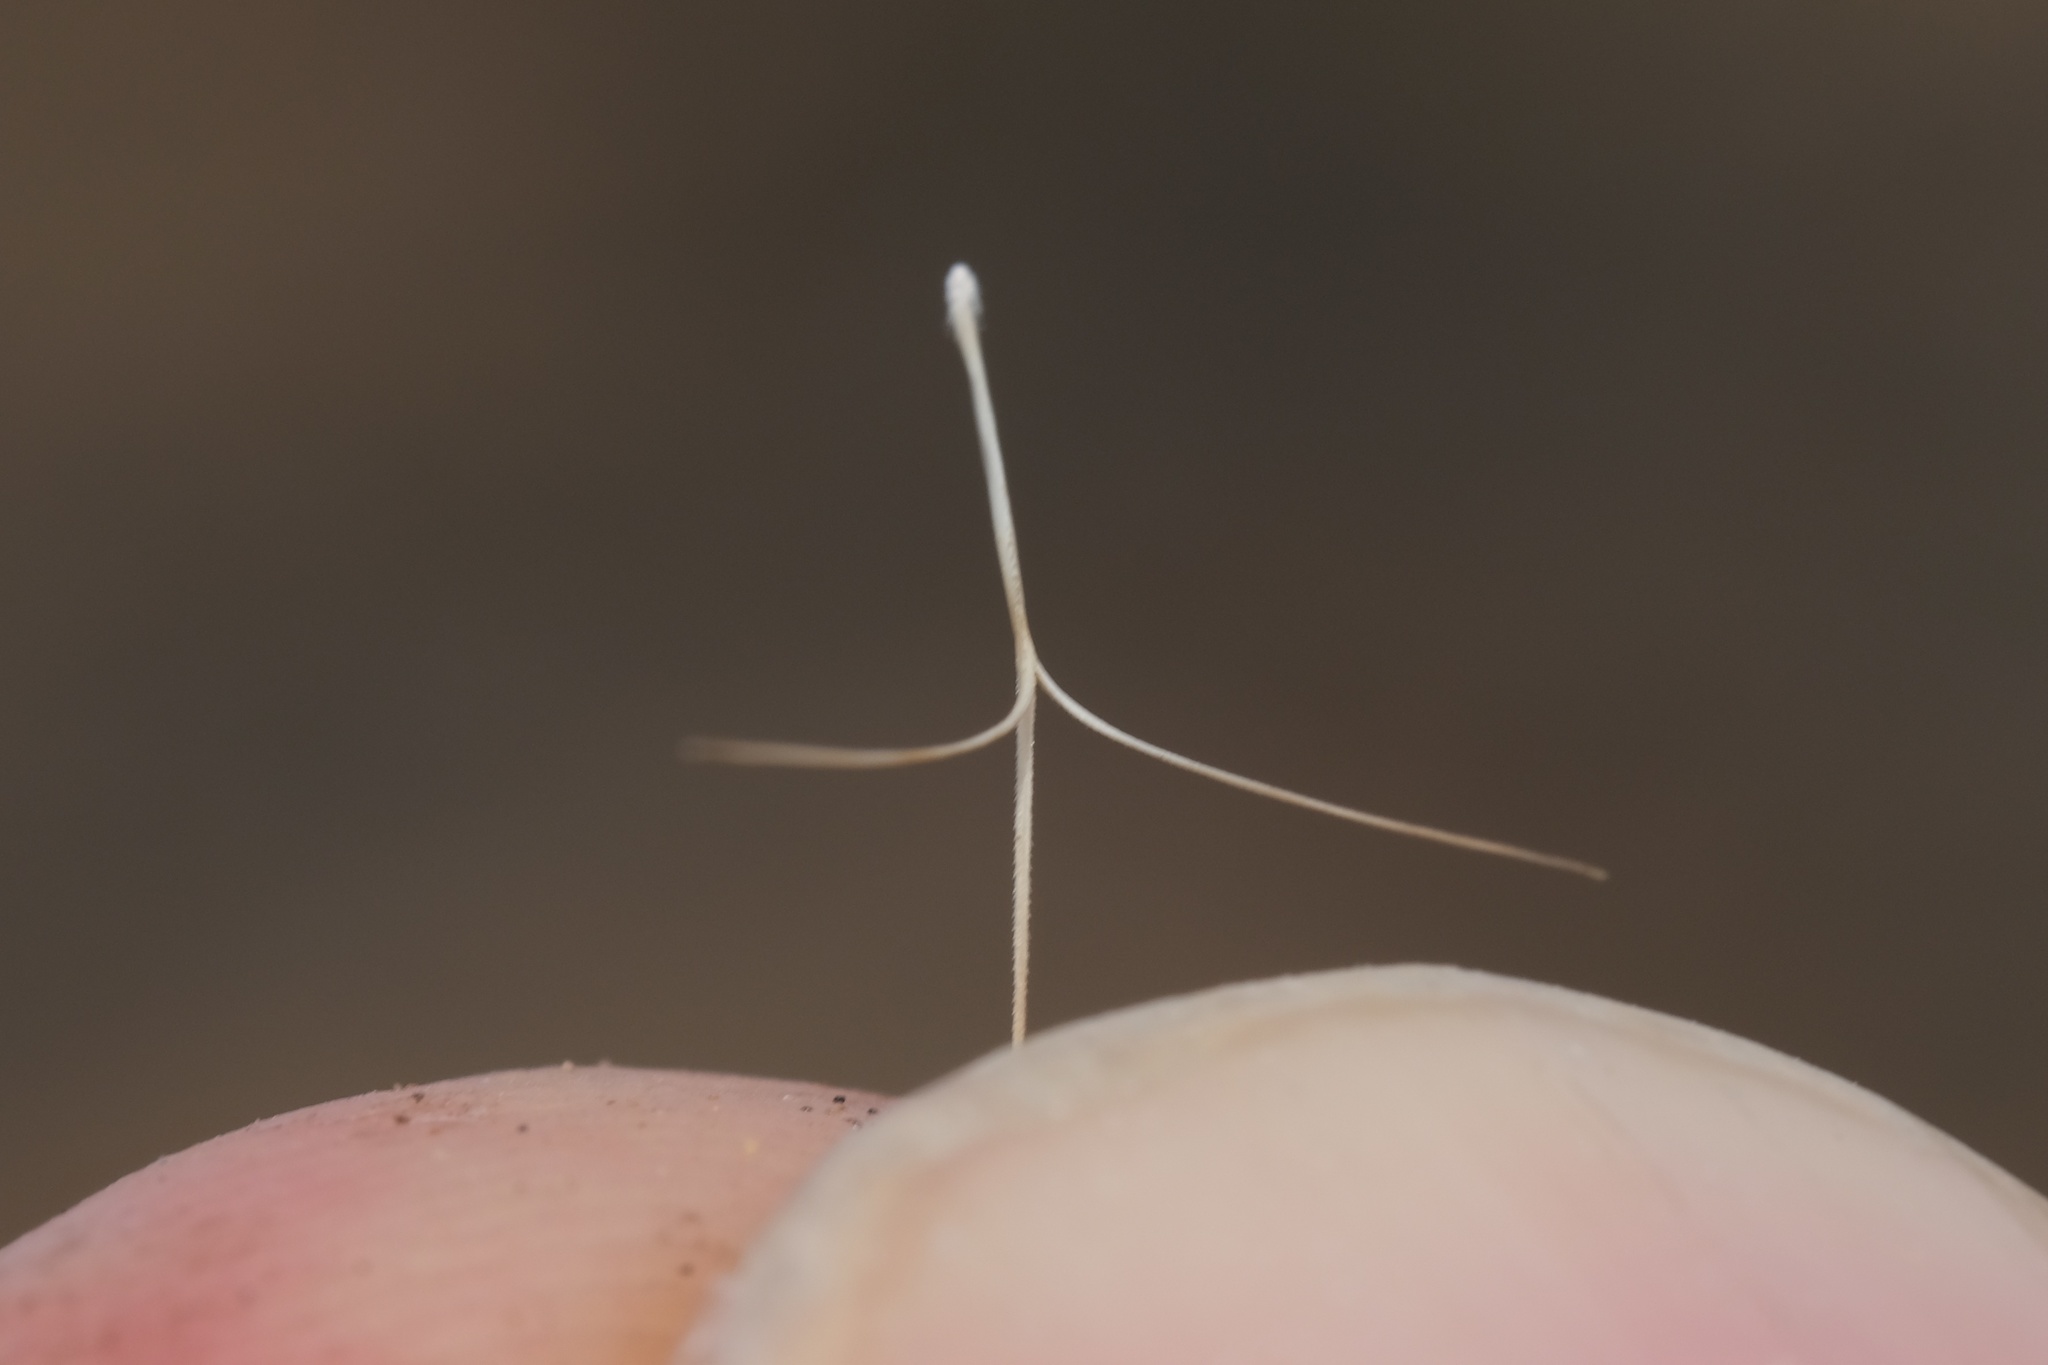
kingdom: Plantae
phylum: Tracheophyta
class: Liliopsida
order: Poales
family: Poaceae
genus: Aristida
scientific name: Aristida adscensionis
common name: Sixweeks threeawn
